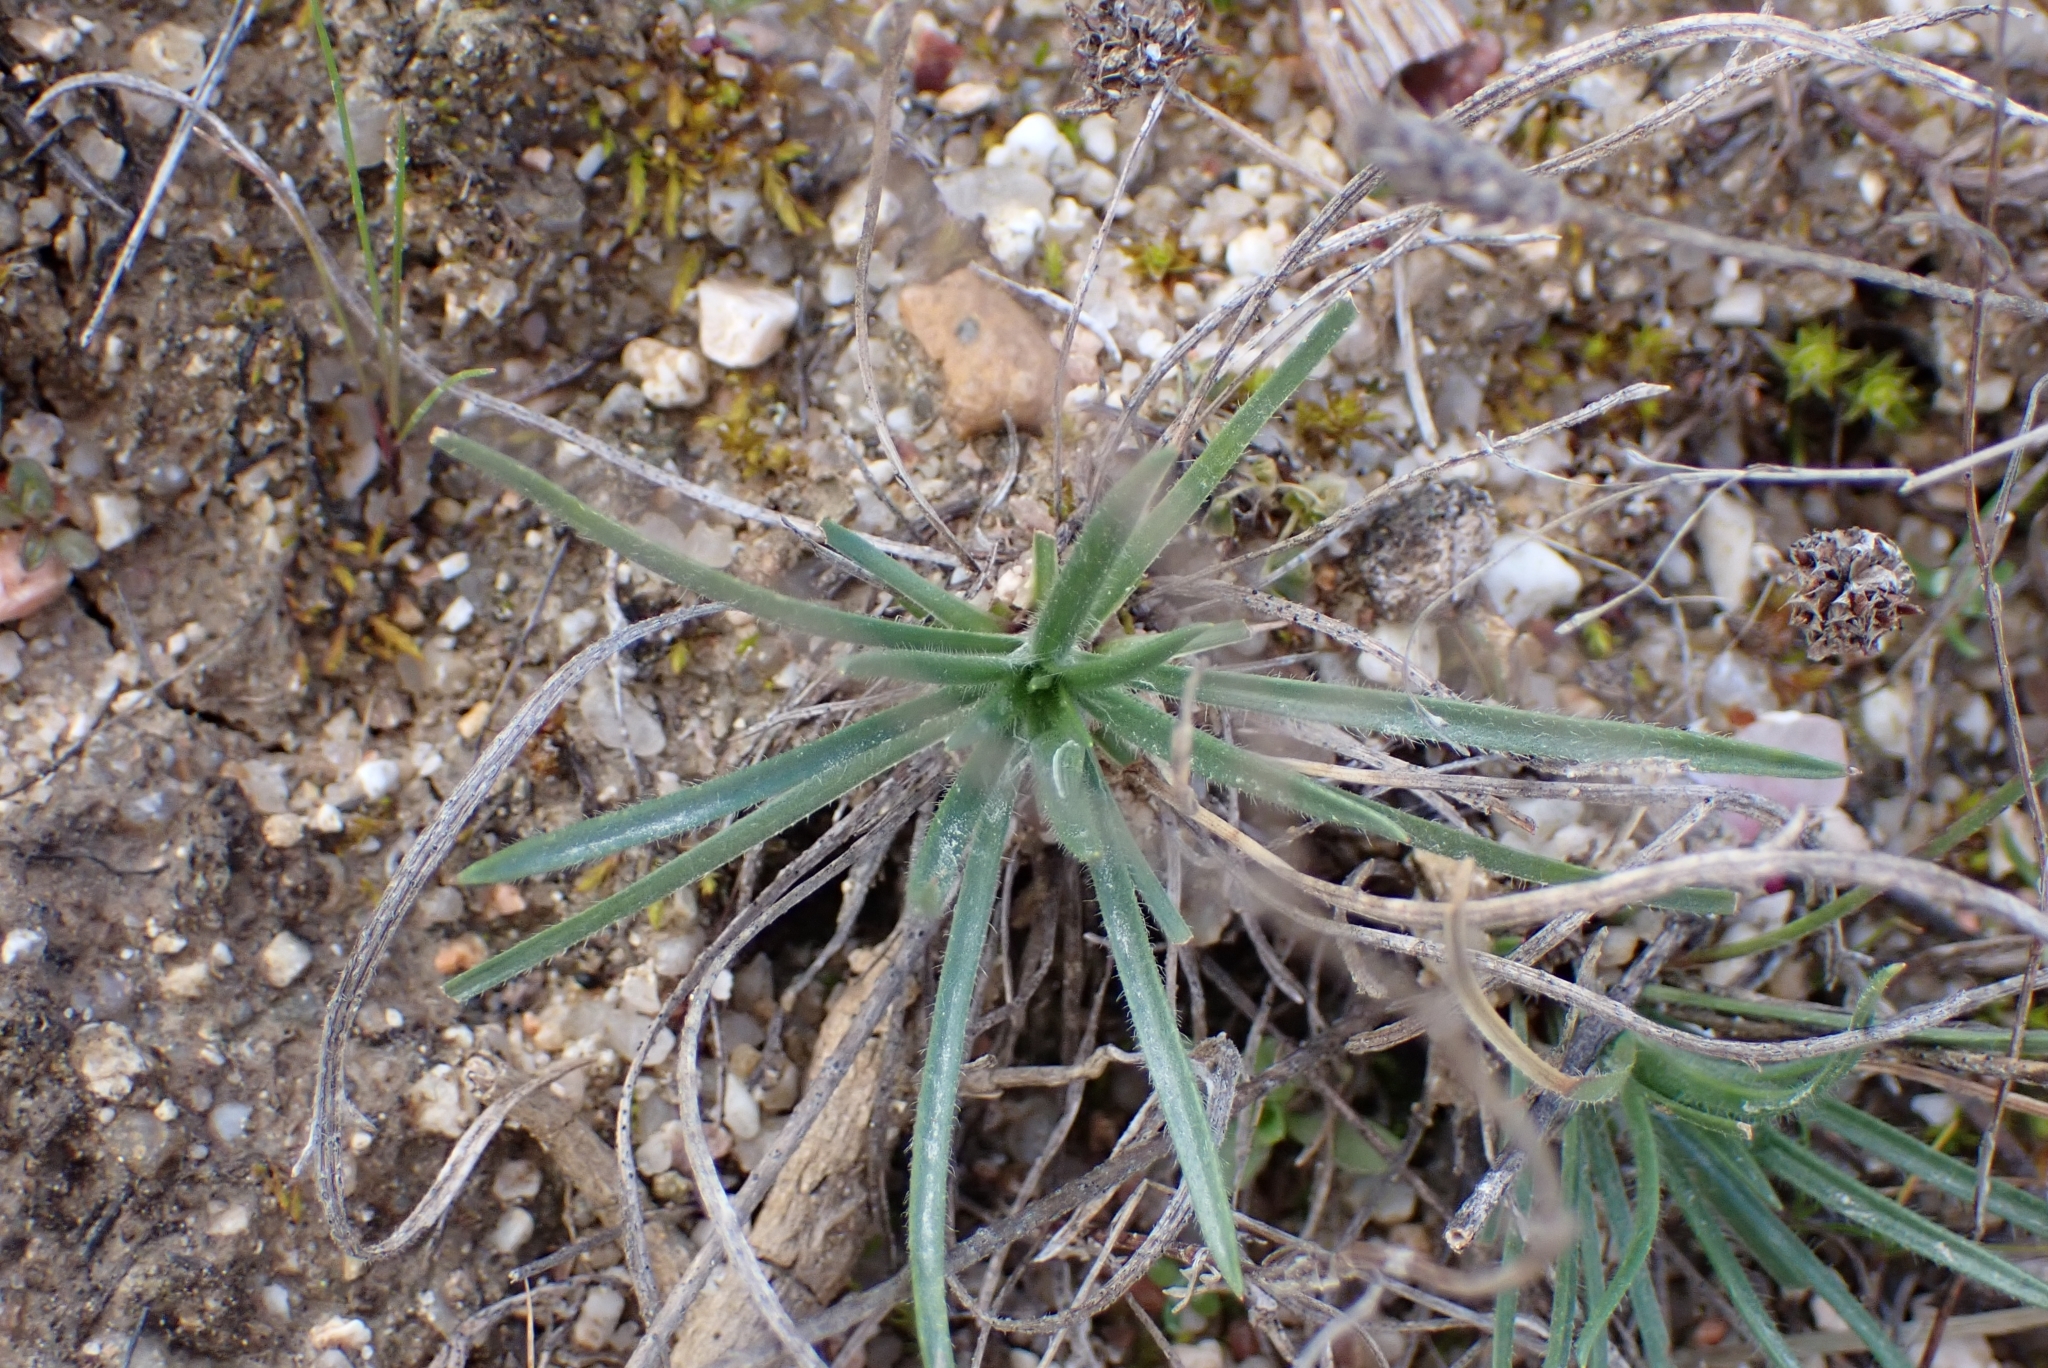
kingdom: Plantae
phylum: Tracheophyta
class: Magnoliopsida
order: Lamiales
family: Plantaginaceae
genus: Plantago
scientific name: Plantago subulata
